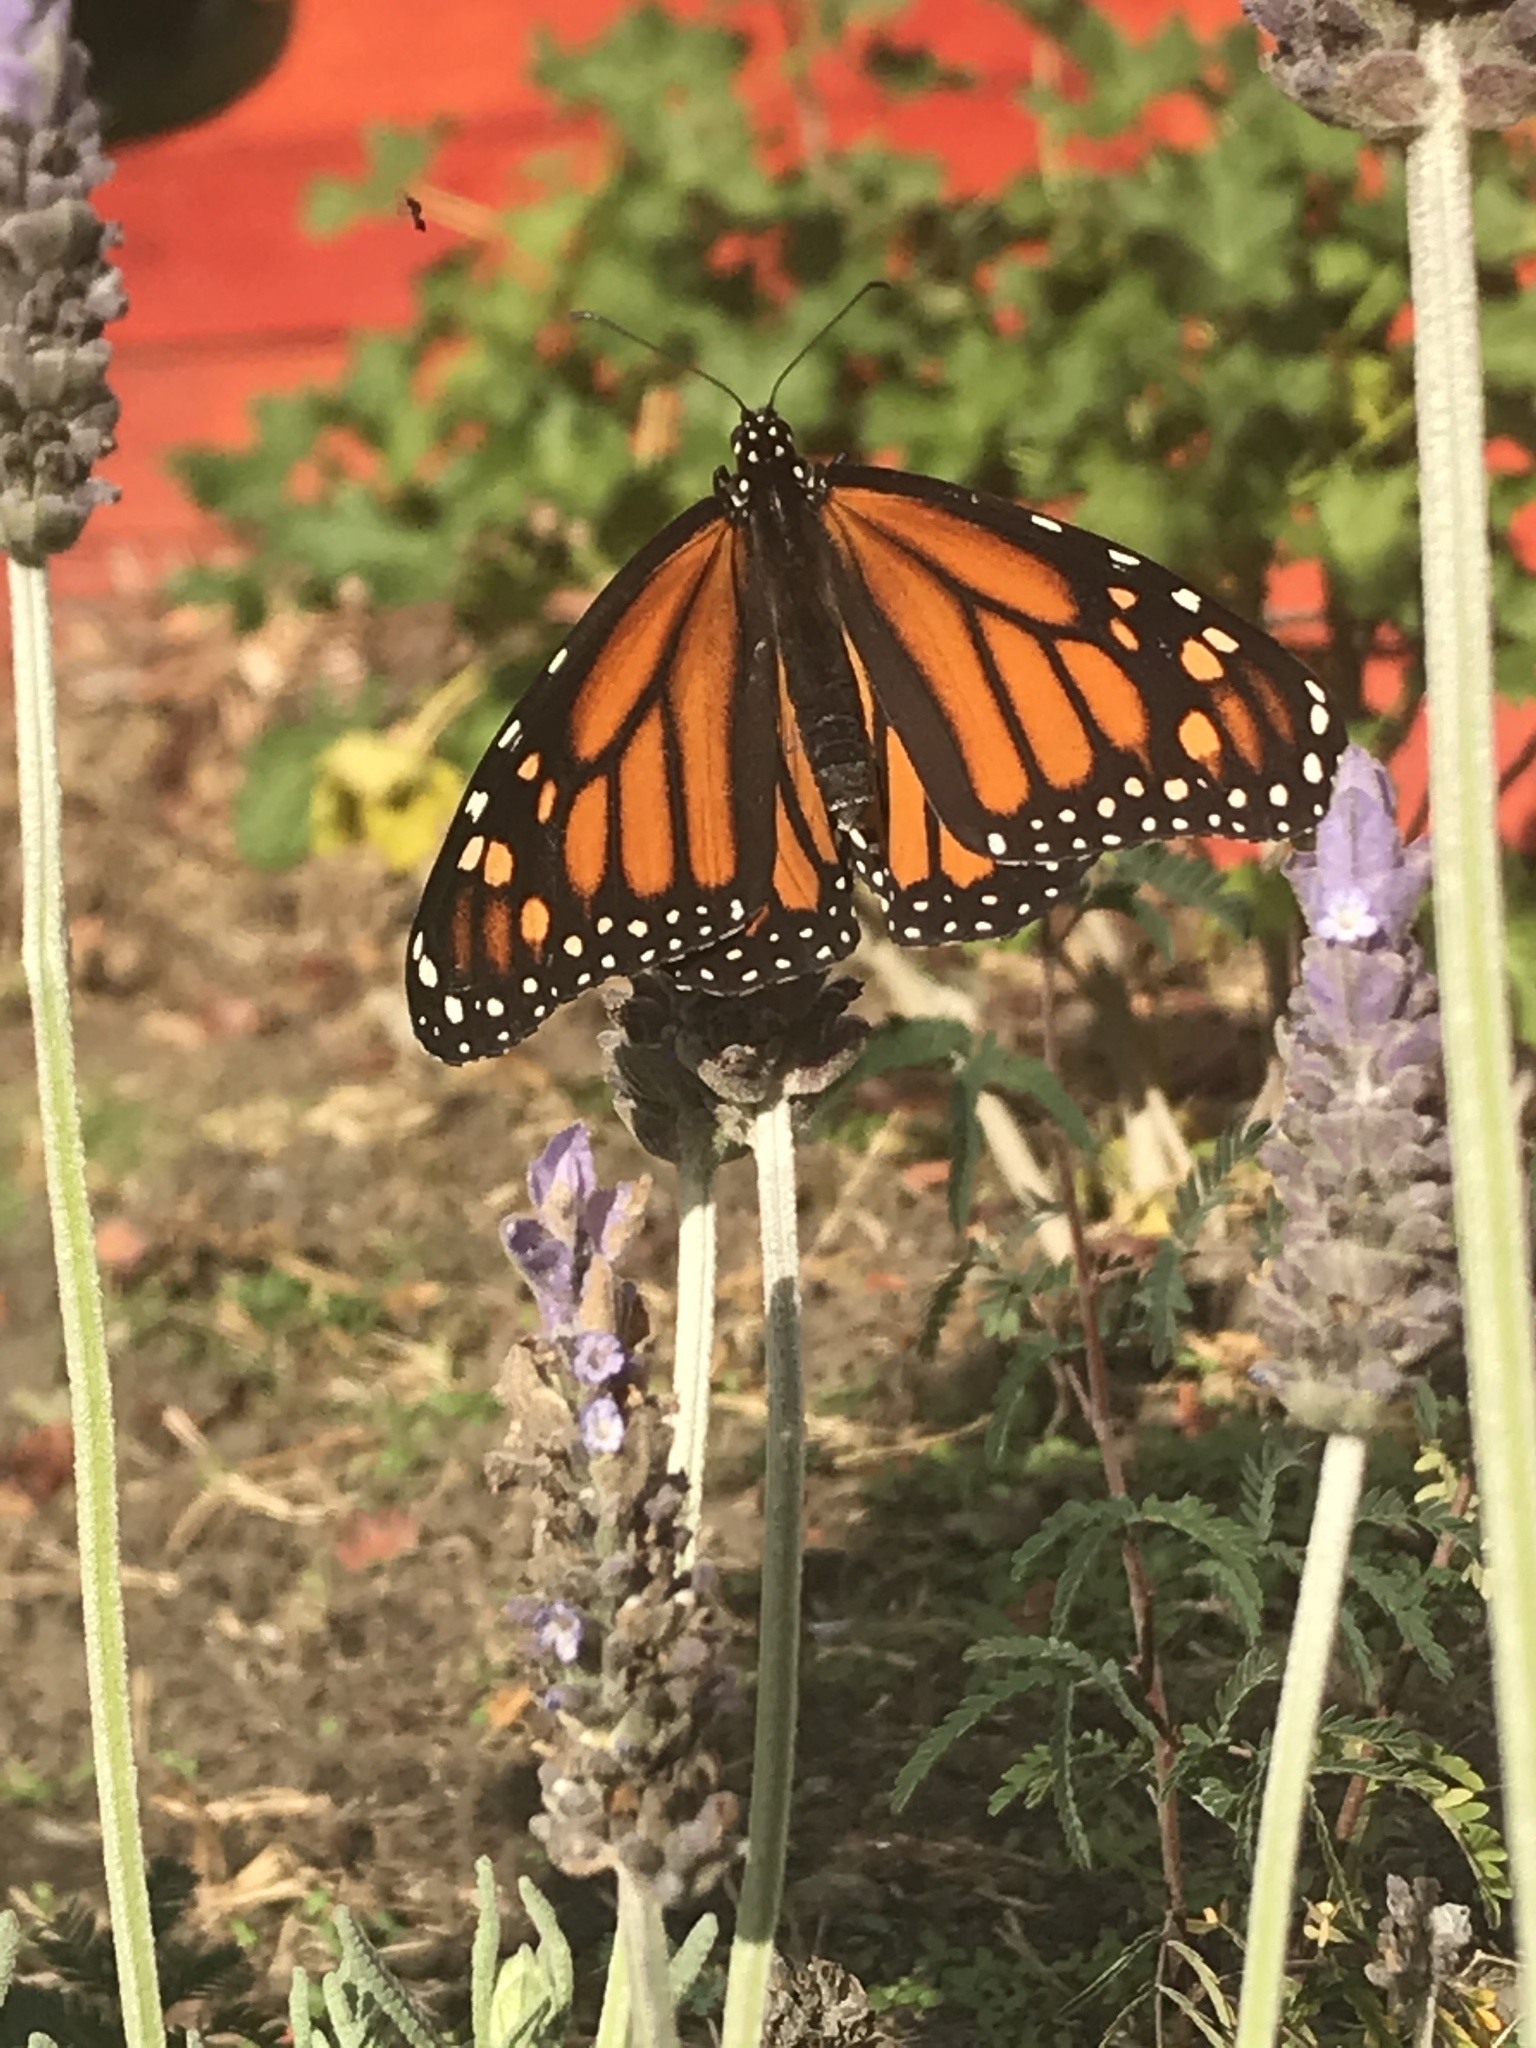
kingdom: Animalia
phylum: Arthropoda
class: Insecta
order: Lepidoptera
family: Nymphalidae
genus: Danaus
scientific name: Danaus plexippus
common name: Monarch
